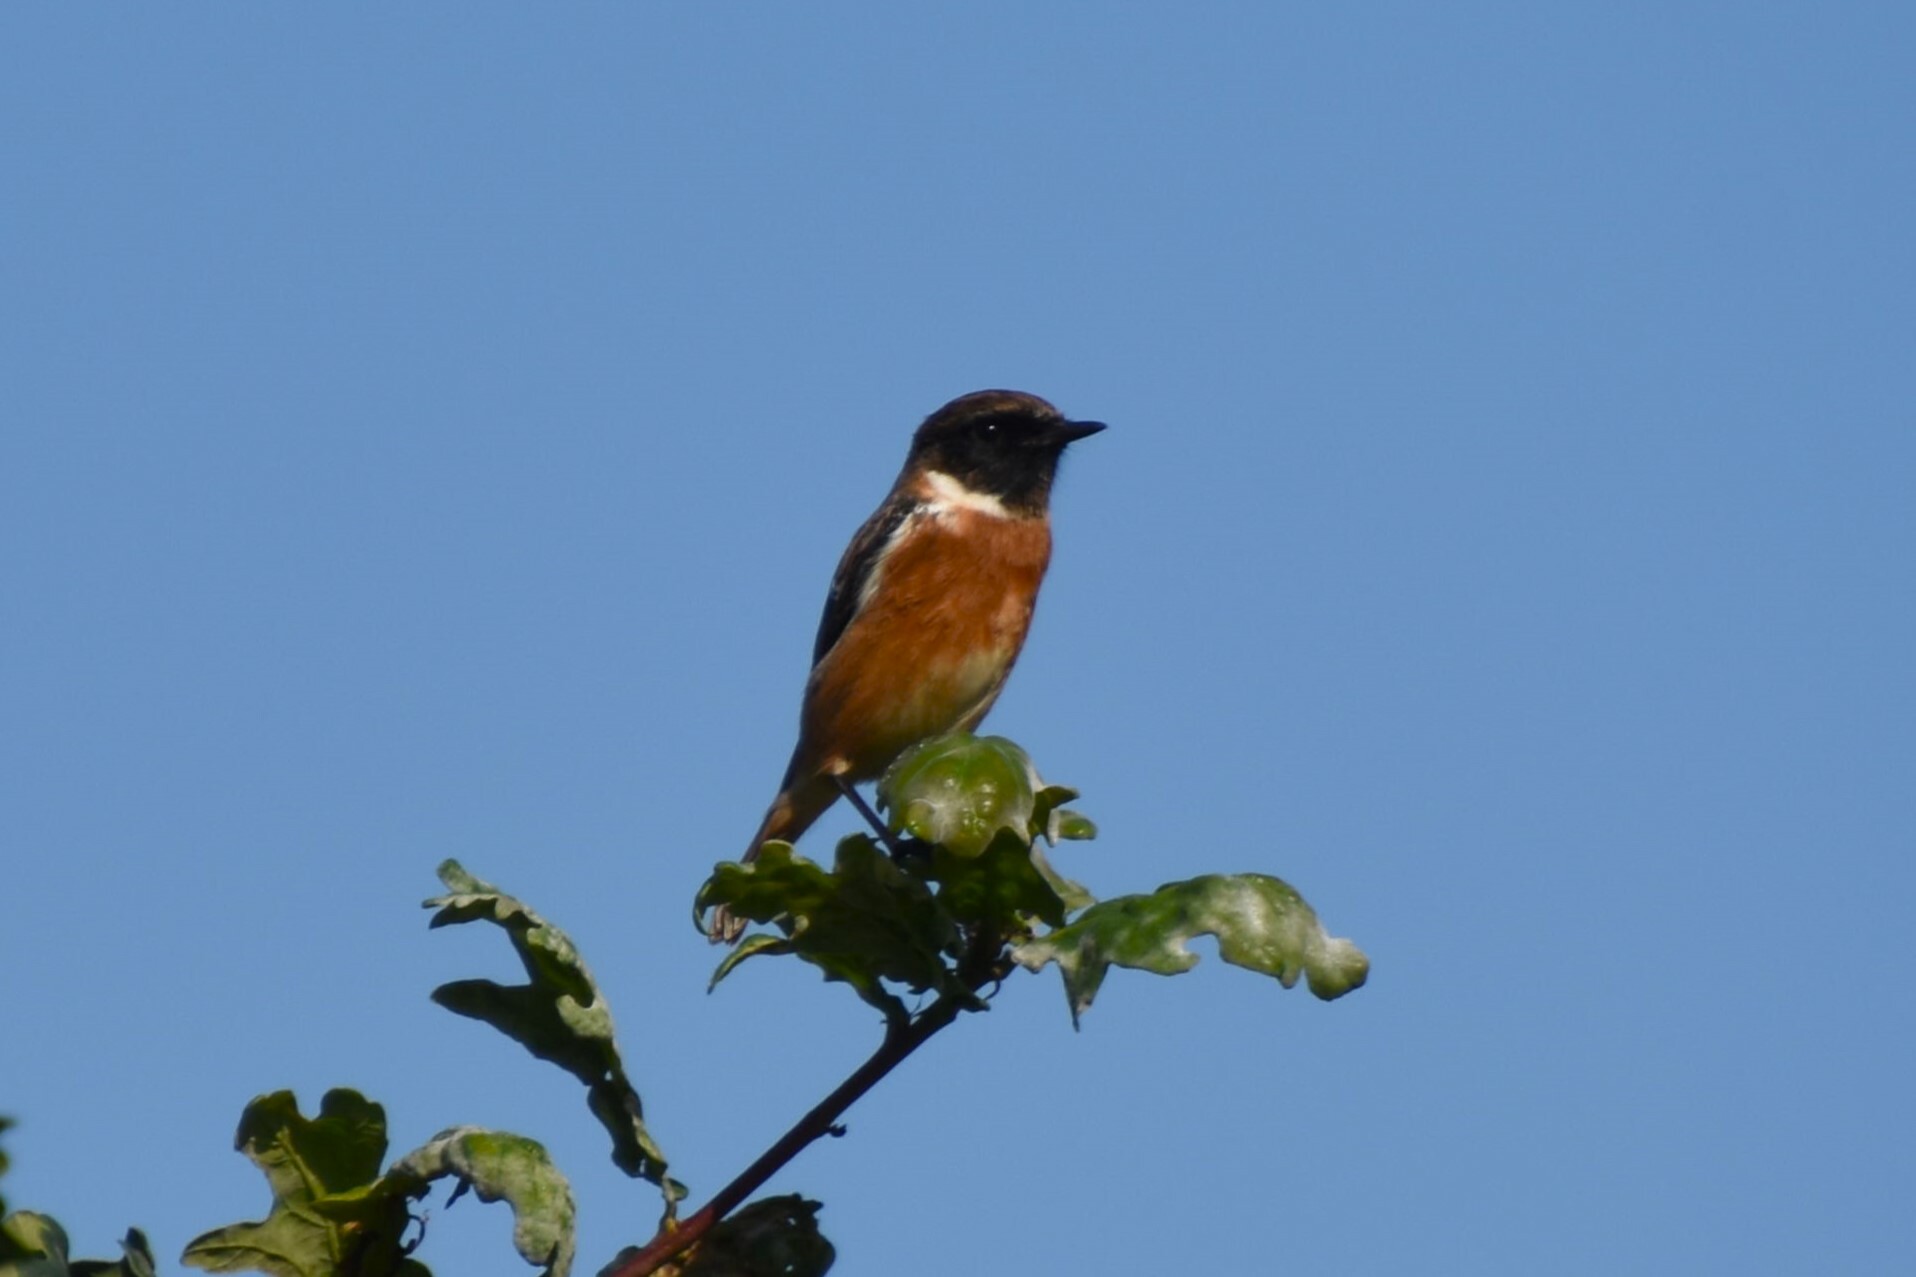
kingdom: Animalia
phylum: Chordata
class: Aves
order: Passeriformes
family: Muscicapidae
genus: Saxicola
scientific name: Saxicola rubicola
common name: European stonechat
